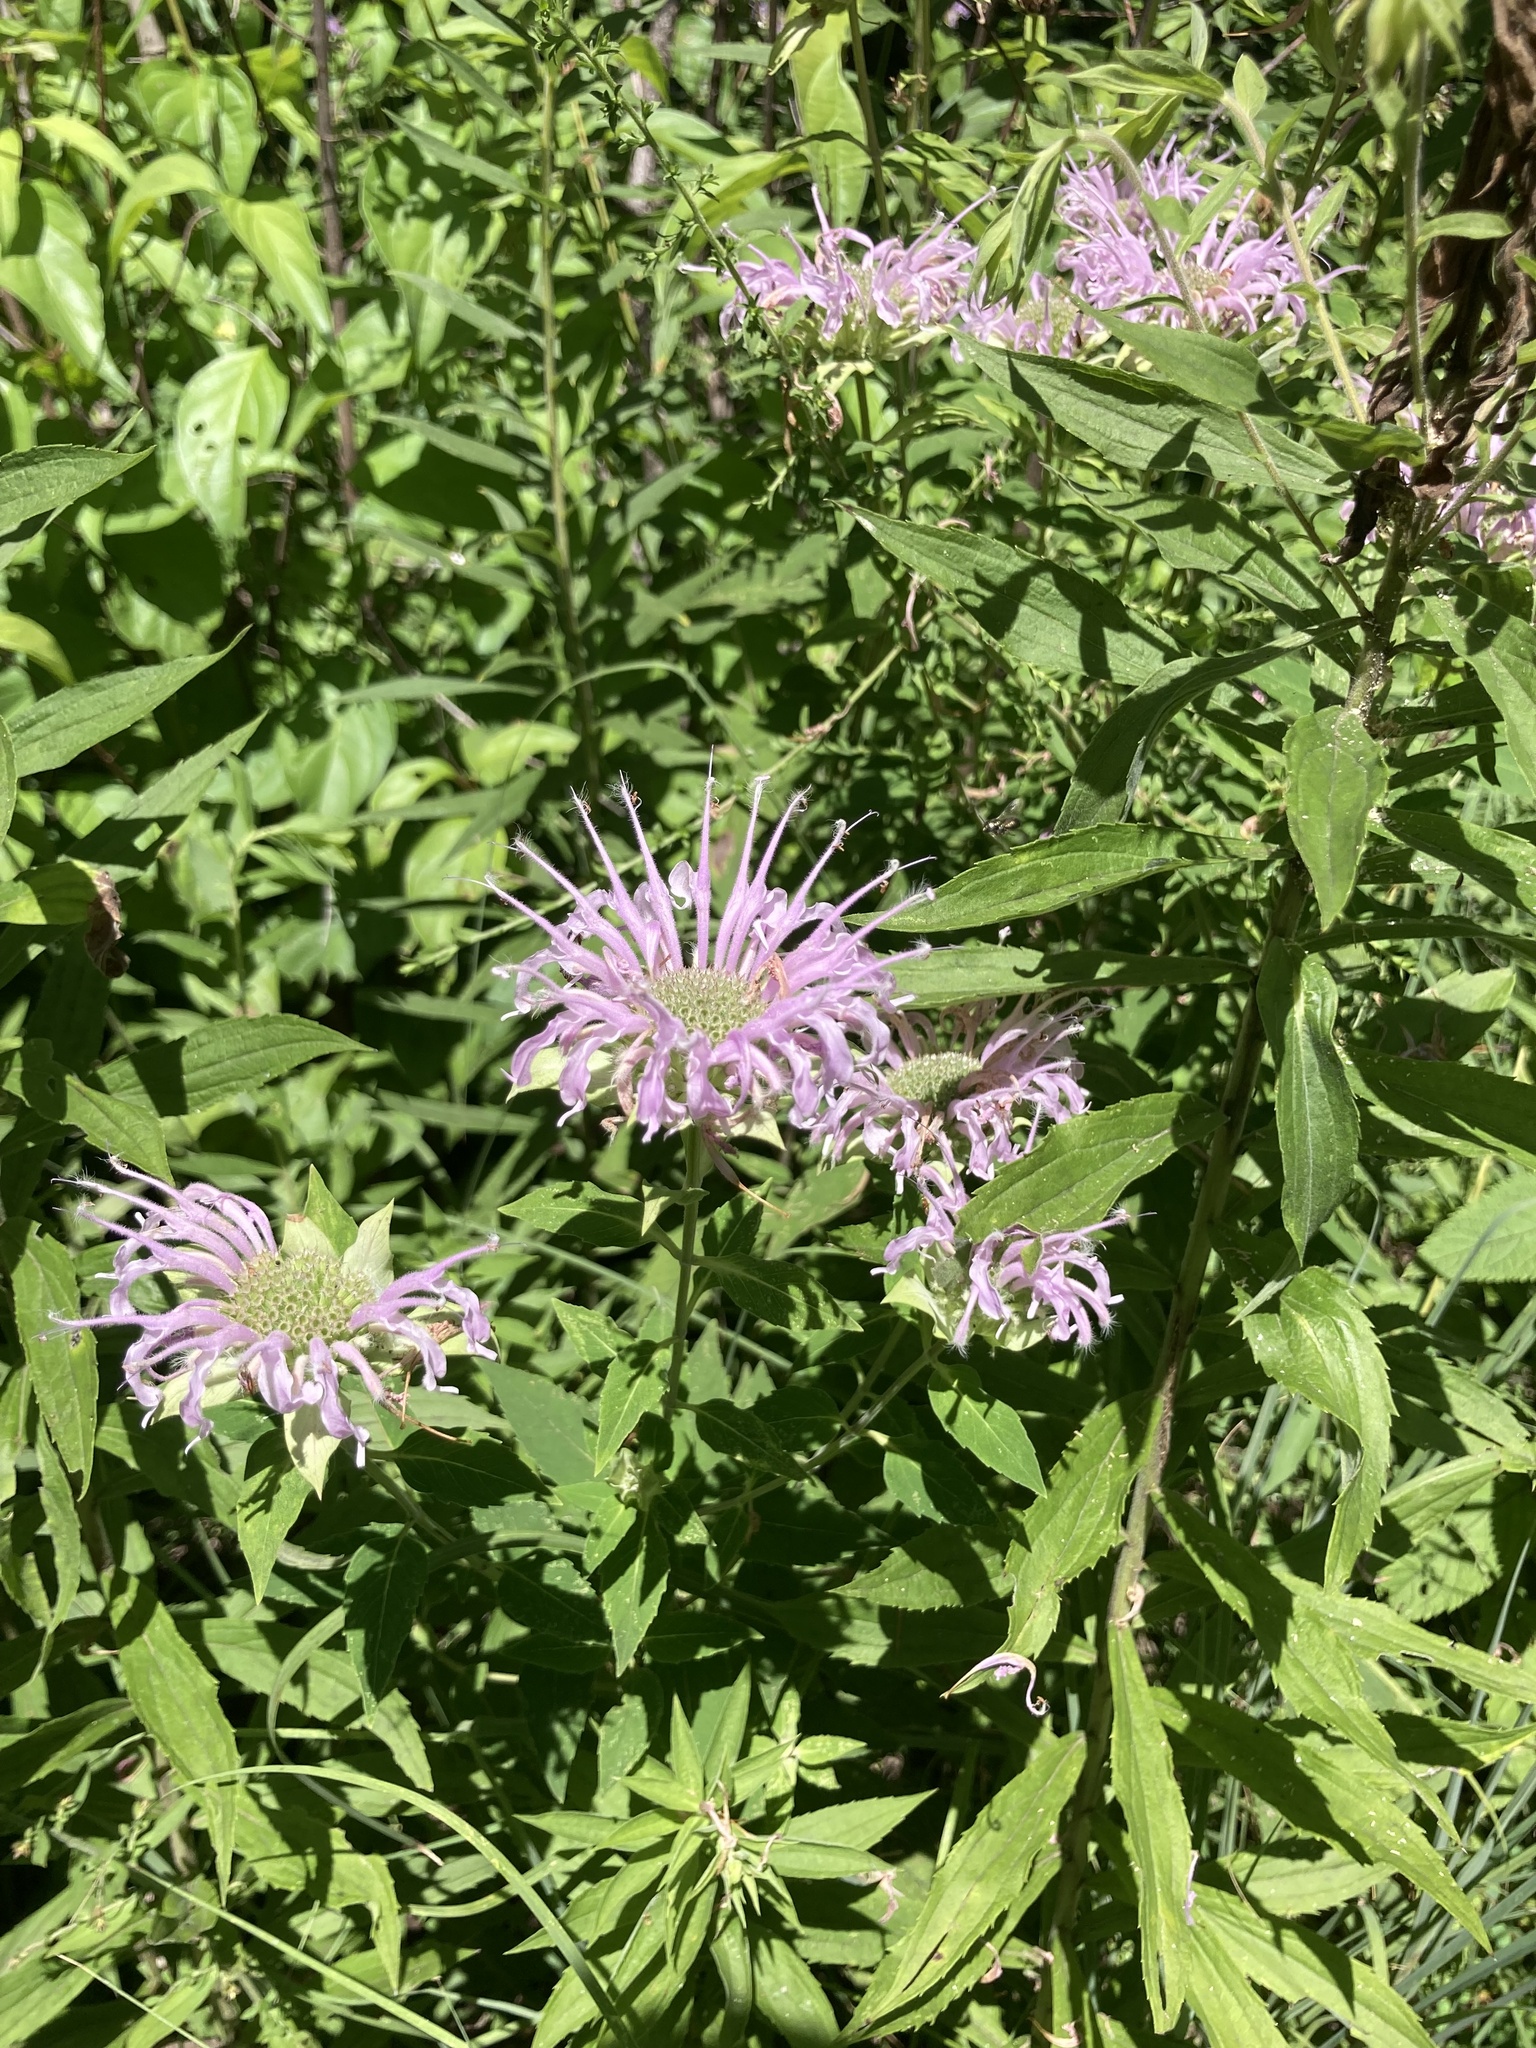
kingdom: Plantae
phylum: Tracheophyta
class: Magnoliopsida
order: Lamiales
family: Lamiaceae
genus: Monarda
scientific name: Monarda fistulosa
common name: Purple beebalm
